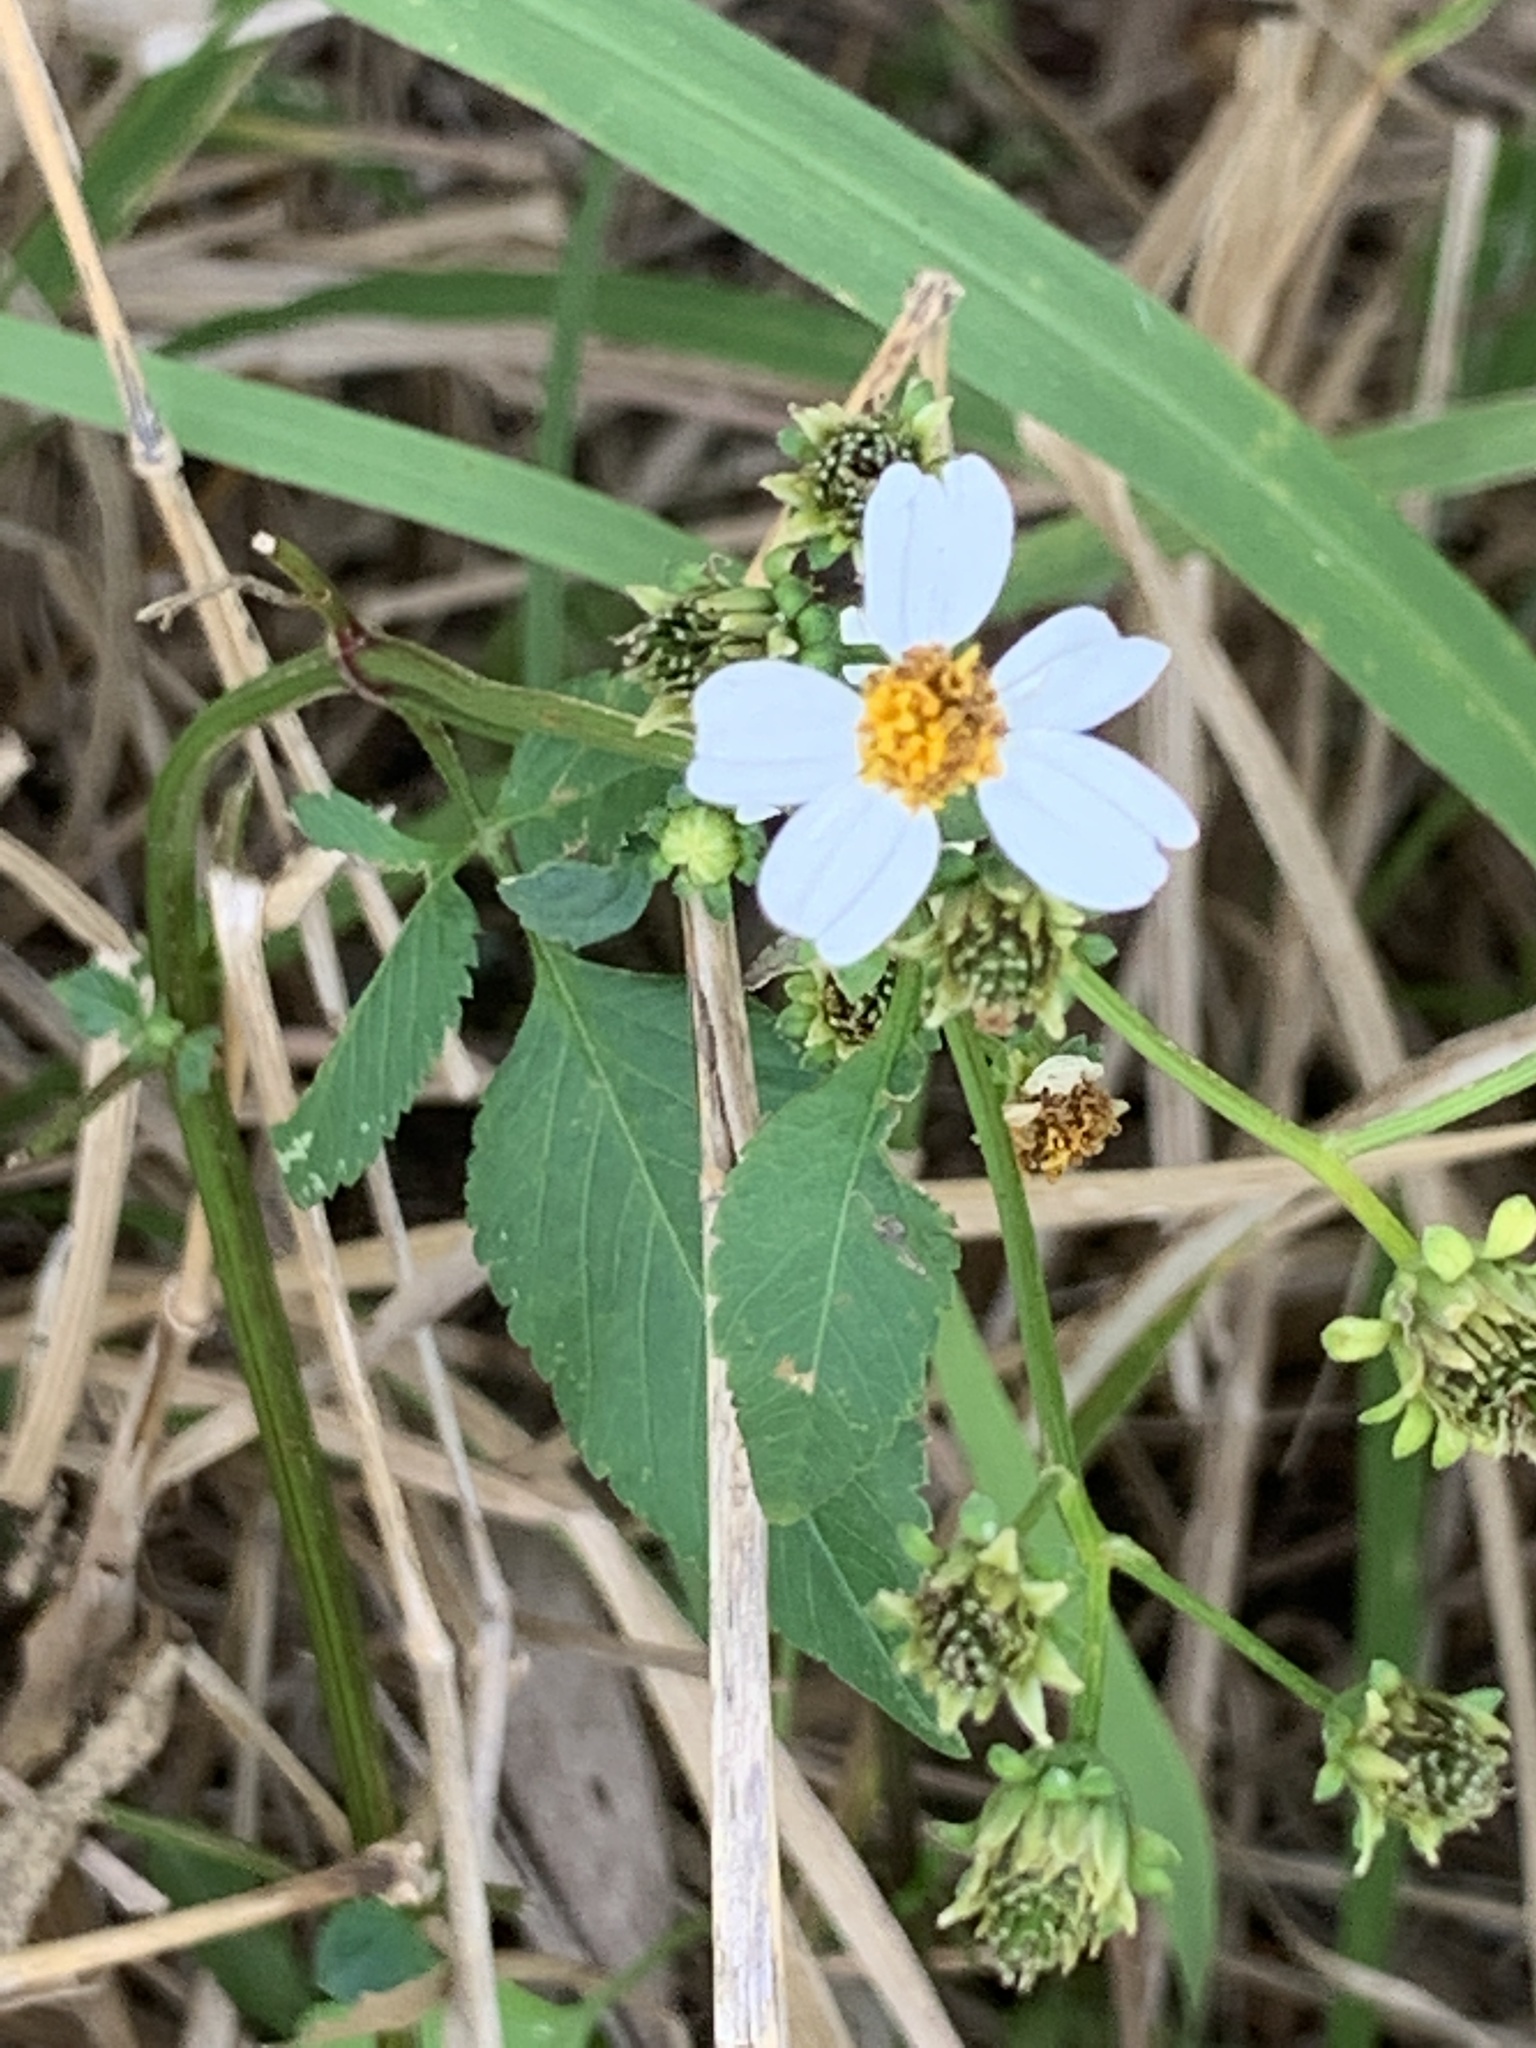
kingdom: Plantae
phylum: Tracheophyta
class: Magnoliopsida
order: Asterales
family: Asteraceae
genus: Bidens
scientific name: Bidens alba
